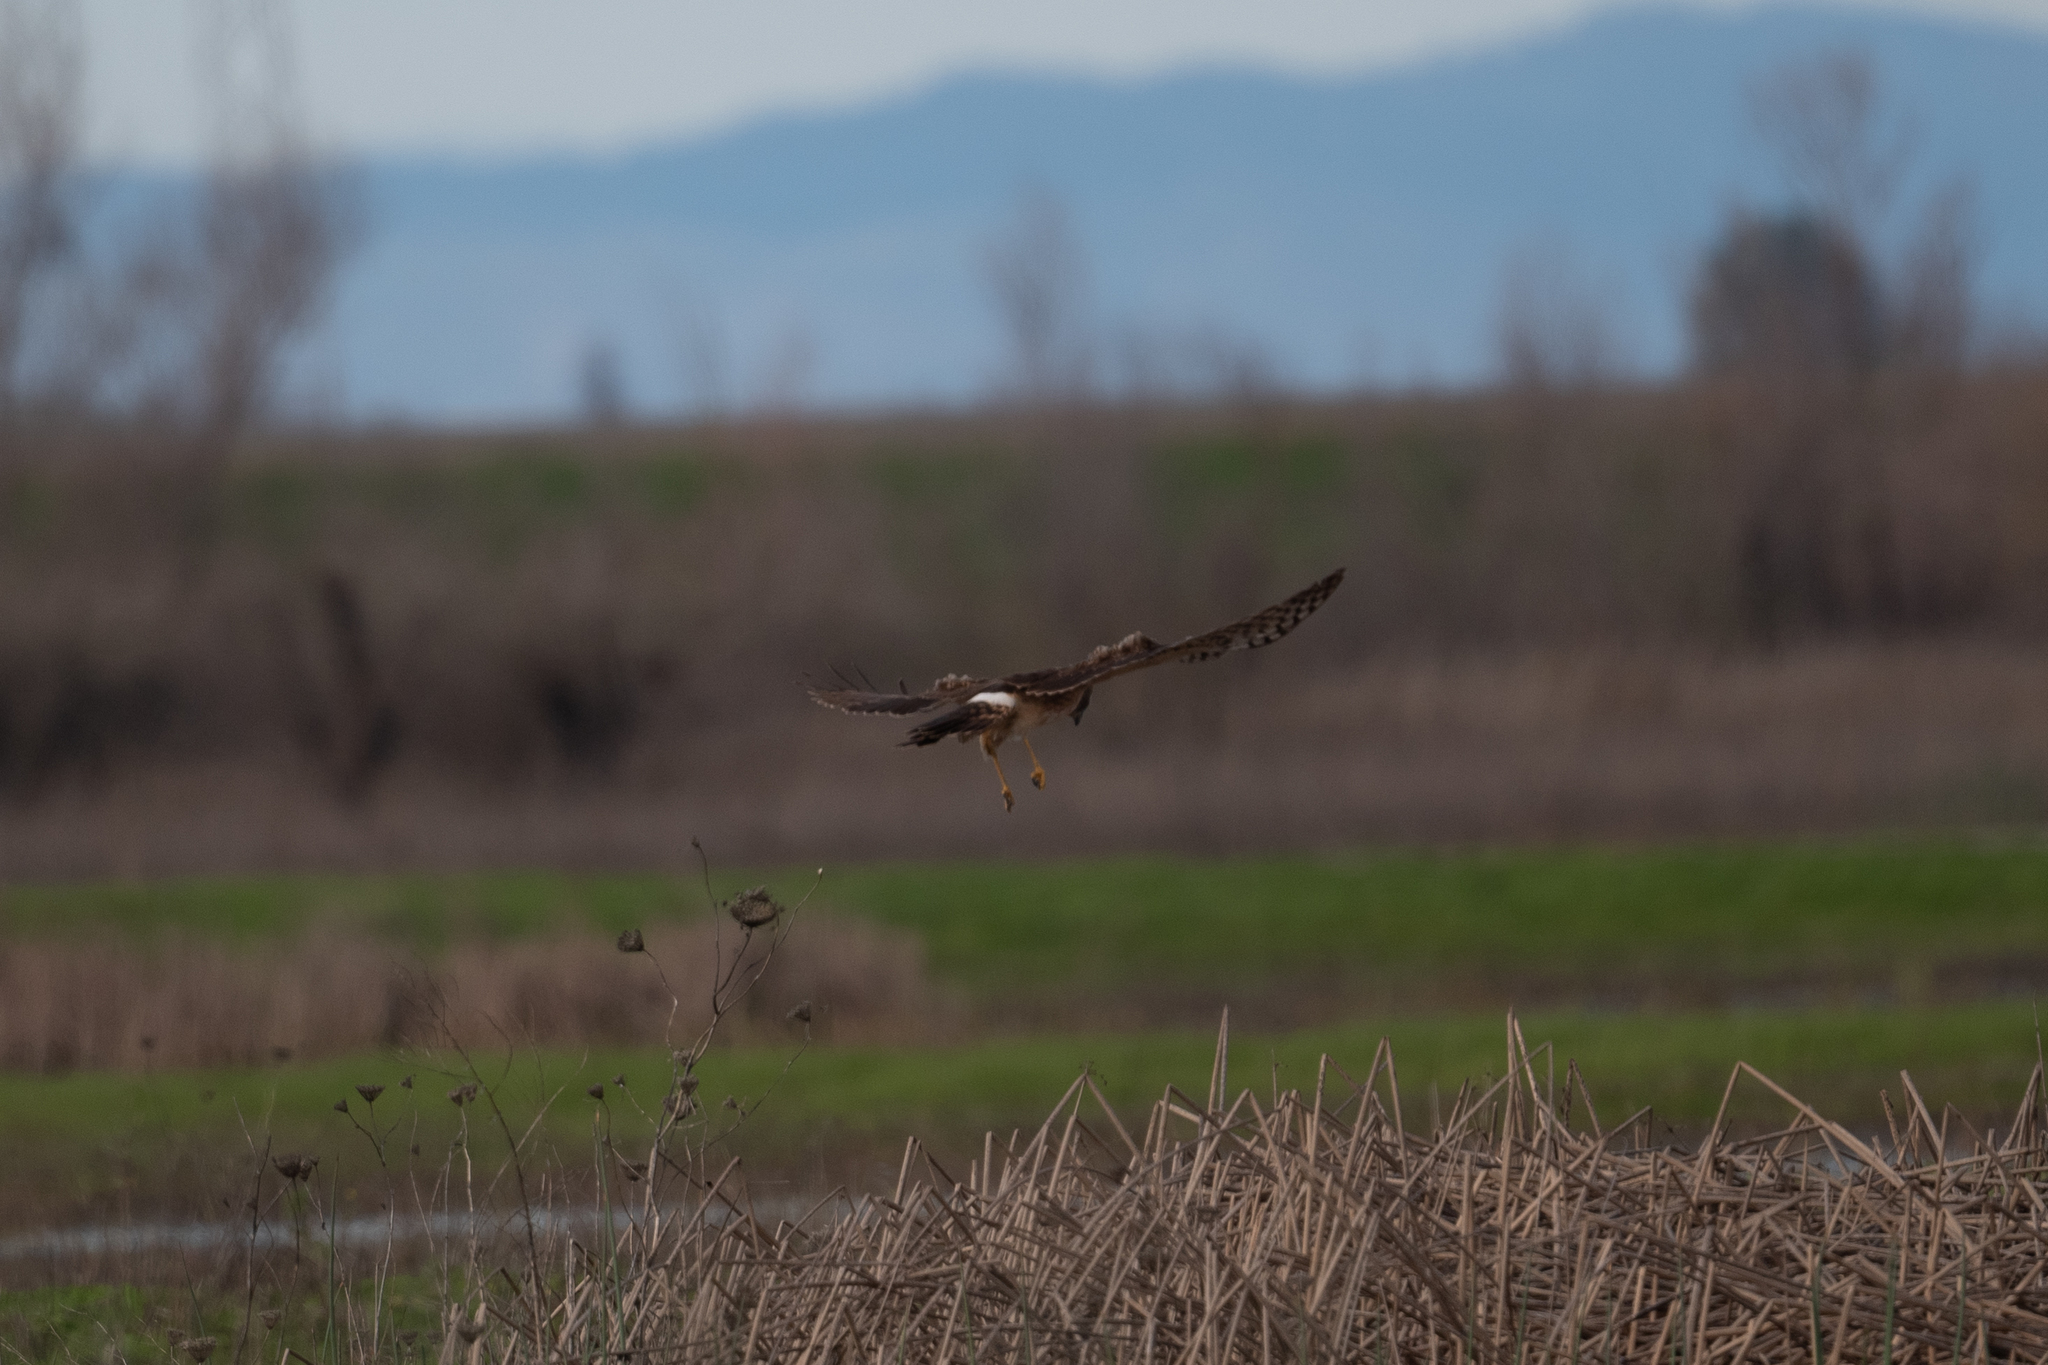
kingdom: Animalia
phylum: Chordata
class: Aves
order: Accipitriformes
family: Accipitridae
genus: Circus
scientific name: Circus cyaneus
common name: Hen harrier
